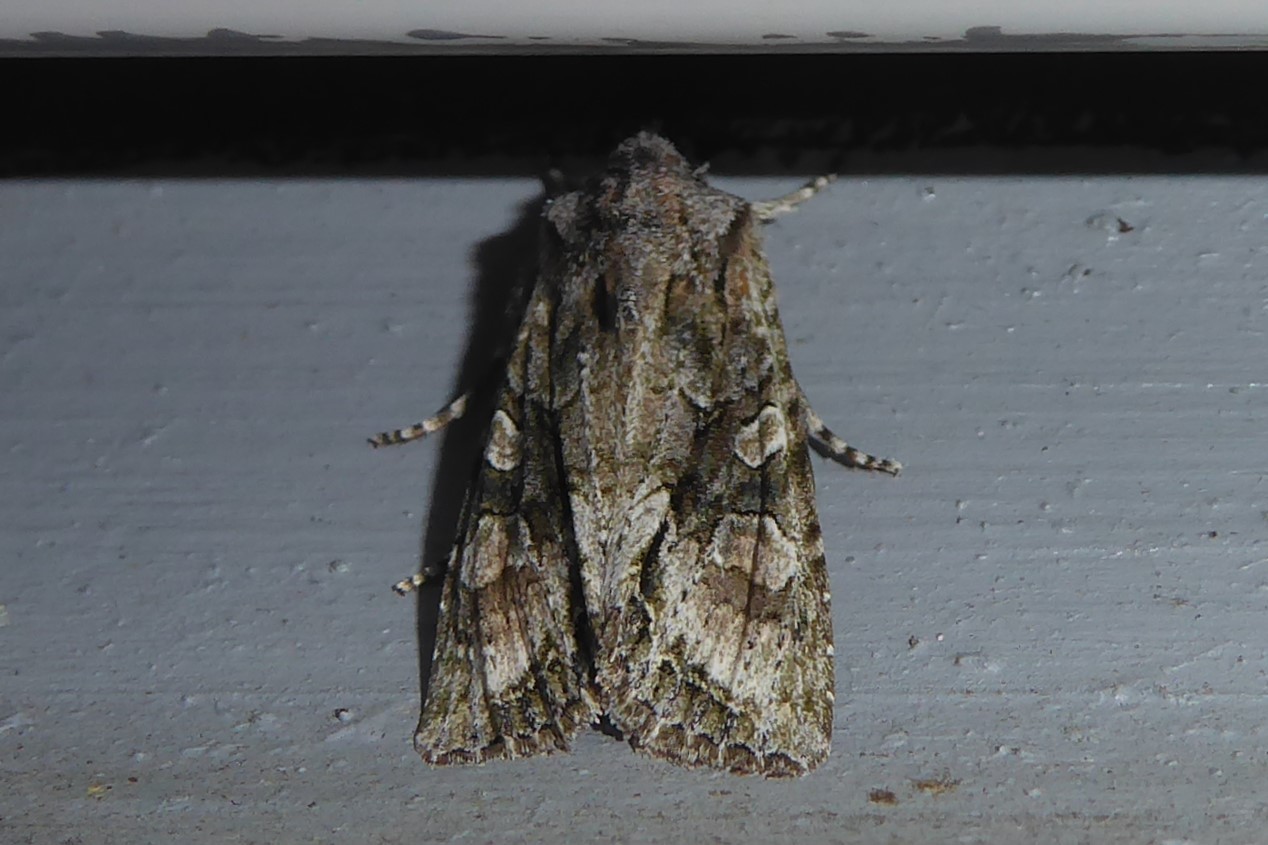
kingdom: Animalia
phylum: Arthropoda
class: Insecta
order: Lepidoptera
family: Noctuidae
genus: Ichneutica
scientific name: Ichneutica mutans
